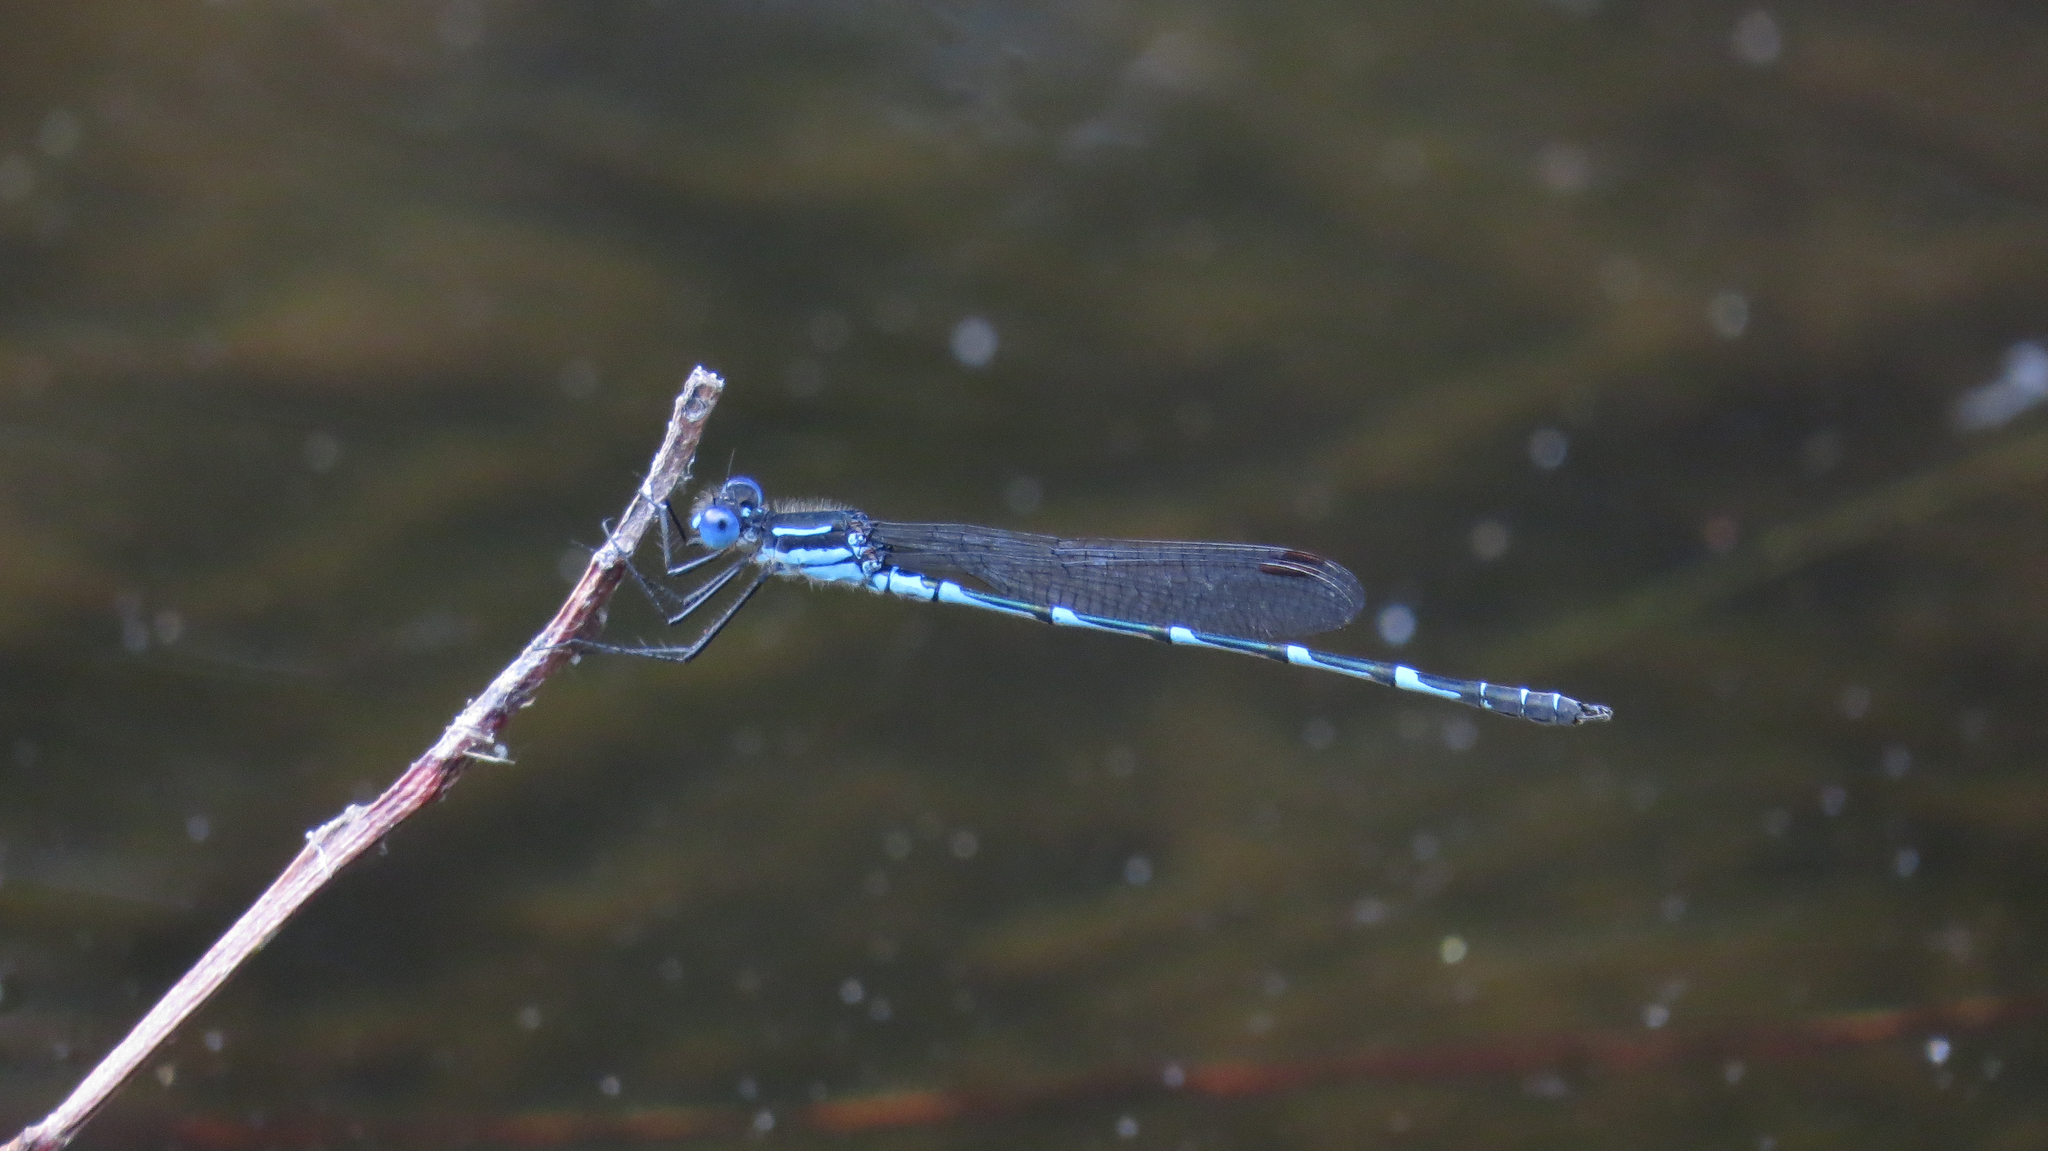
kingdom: Animalia
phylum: Arthropoda
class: Insecta
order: Odonata
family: Lestidae
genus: Austrolestes
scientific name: Austrolestes minjerriba
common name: Dune ringtail
